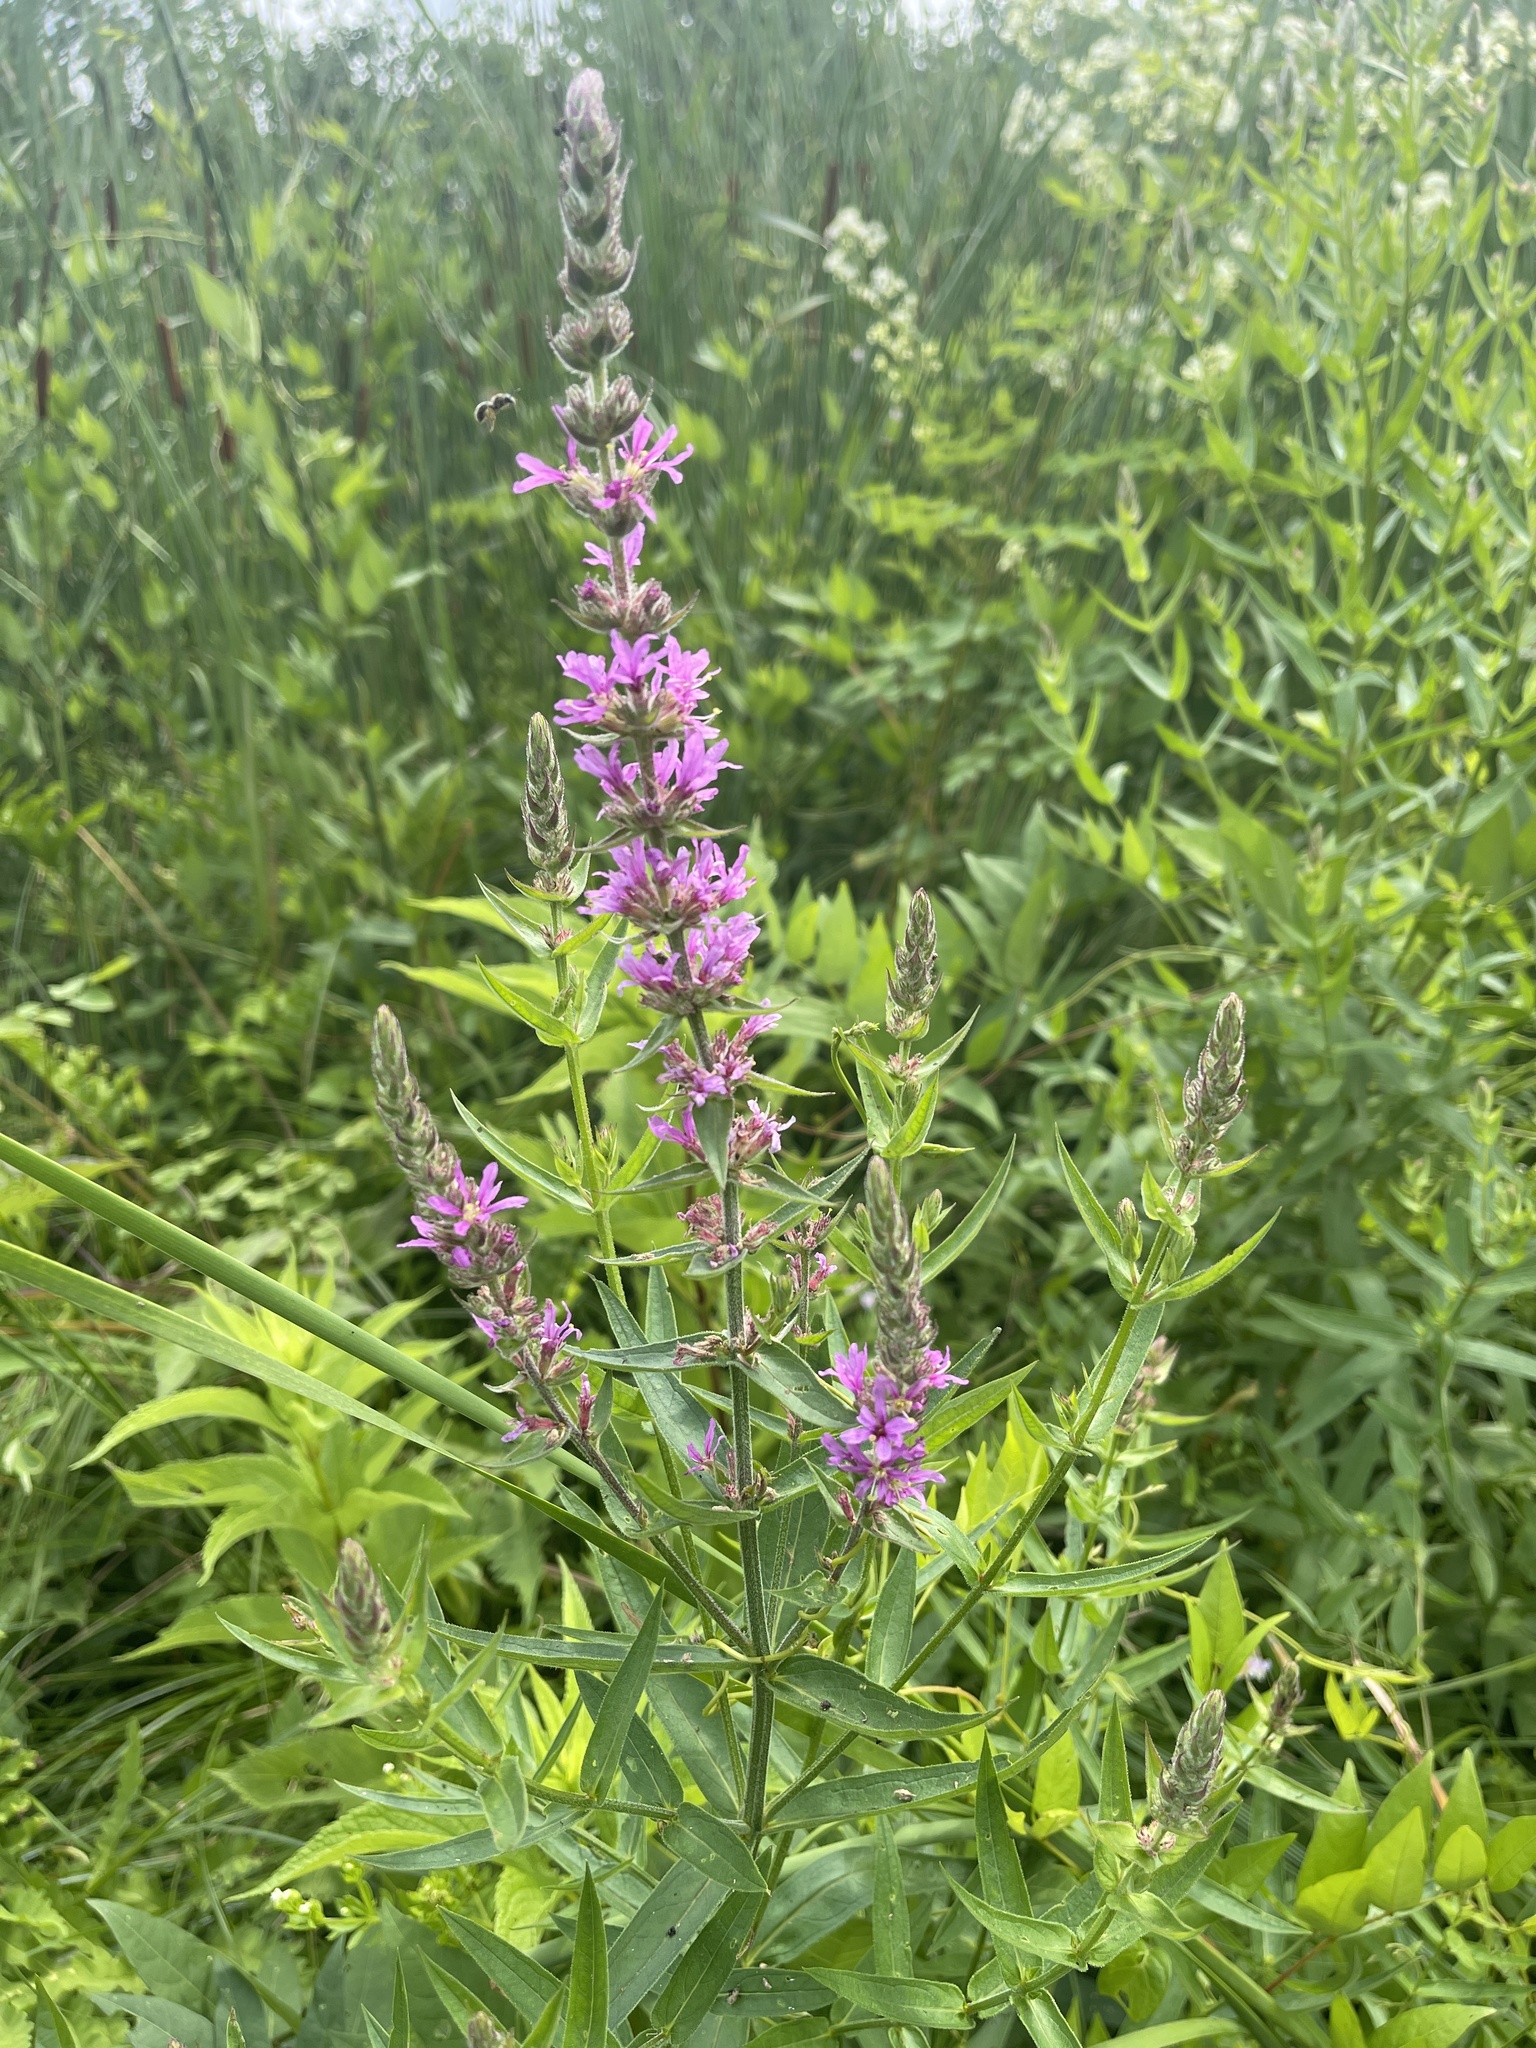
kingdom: Plantae
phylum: Tracheophyta
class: Magnoliopsida
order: Myrtales
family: Lythraceae
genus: Lythrum
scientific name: Lythrum salicaria
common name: Purple loosestrife
